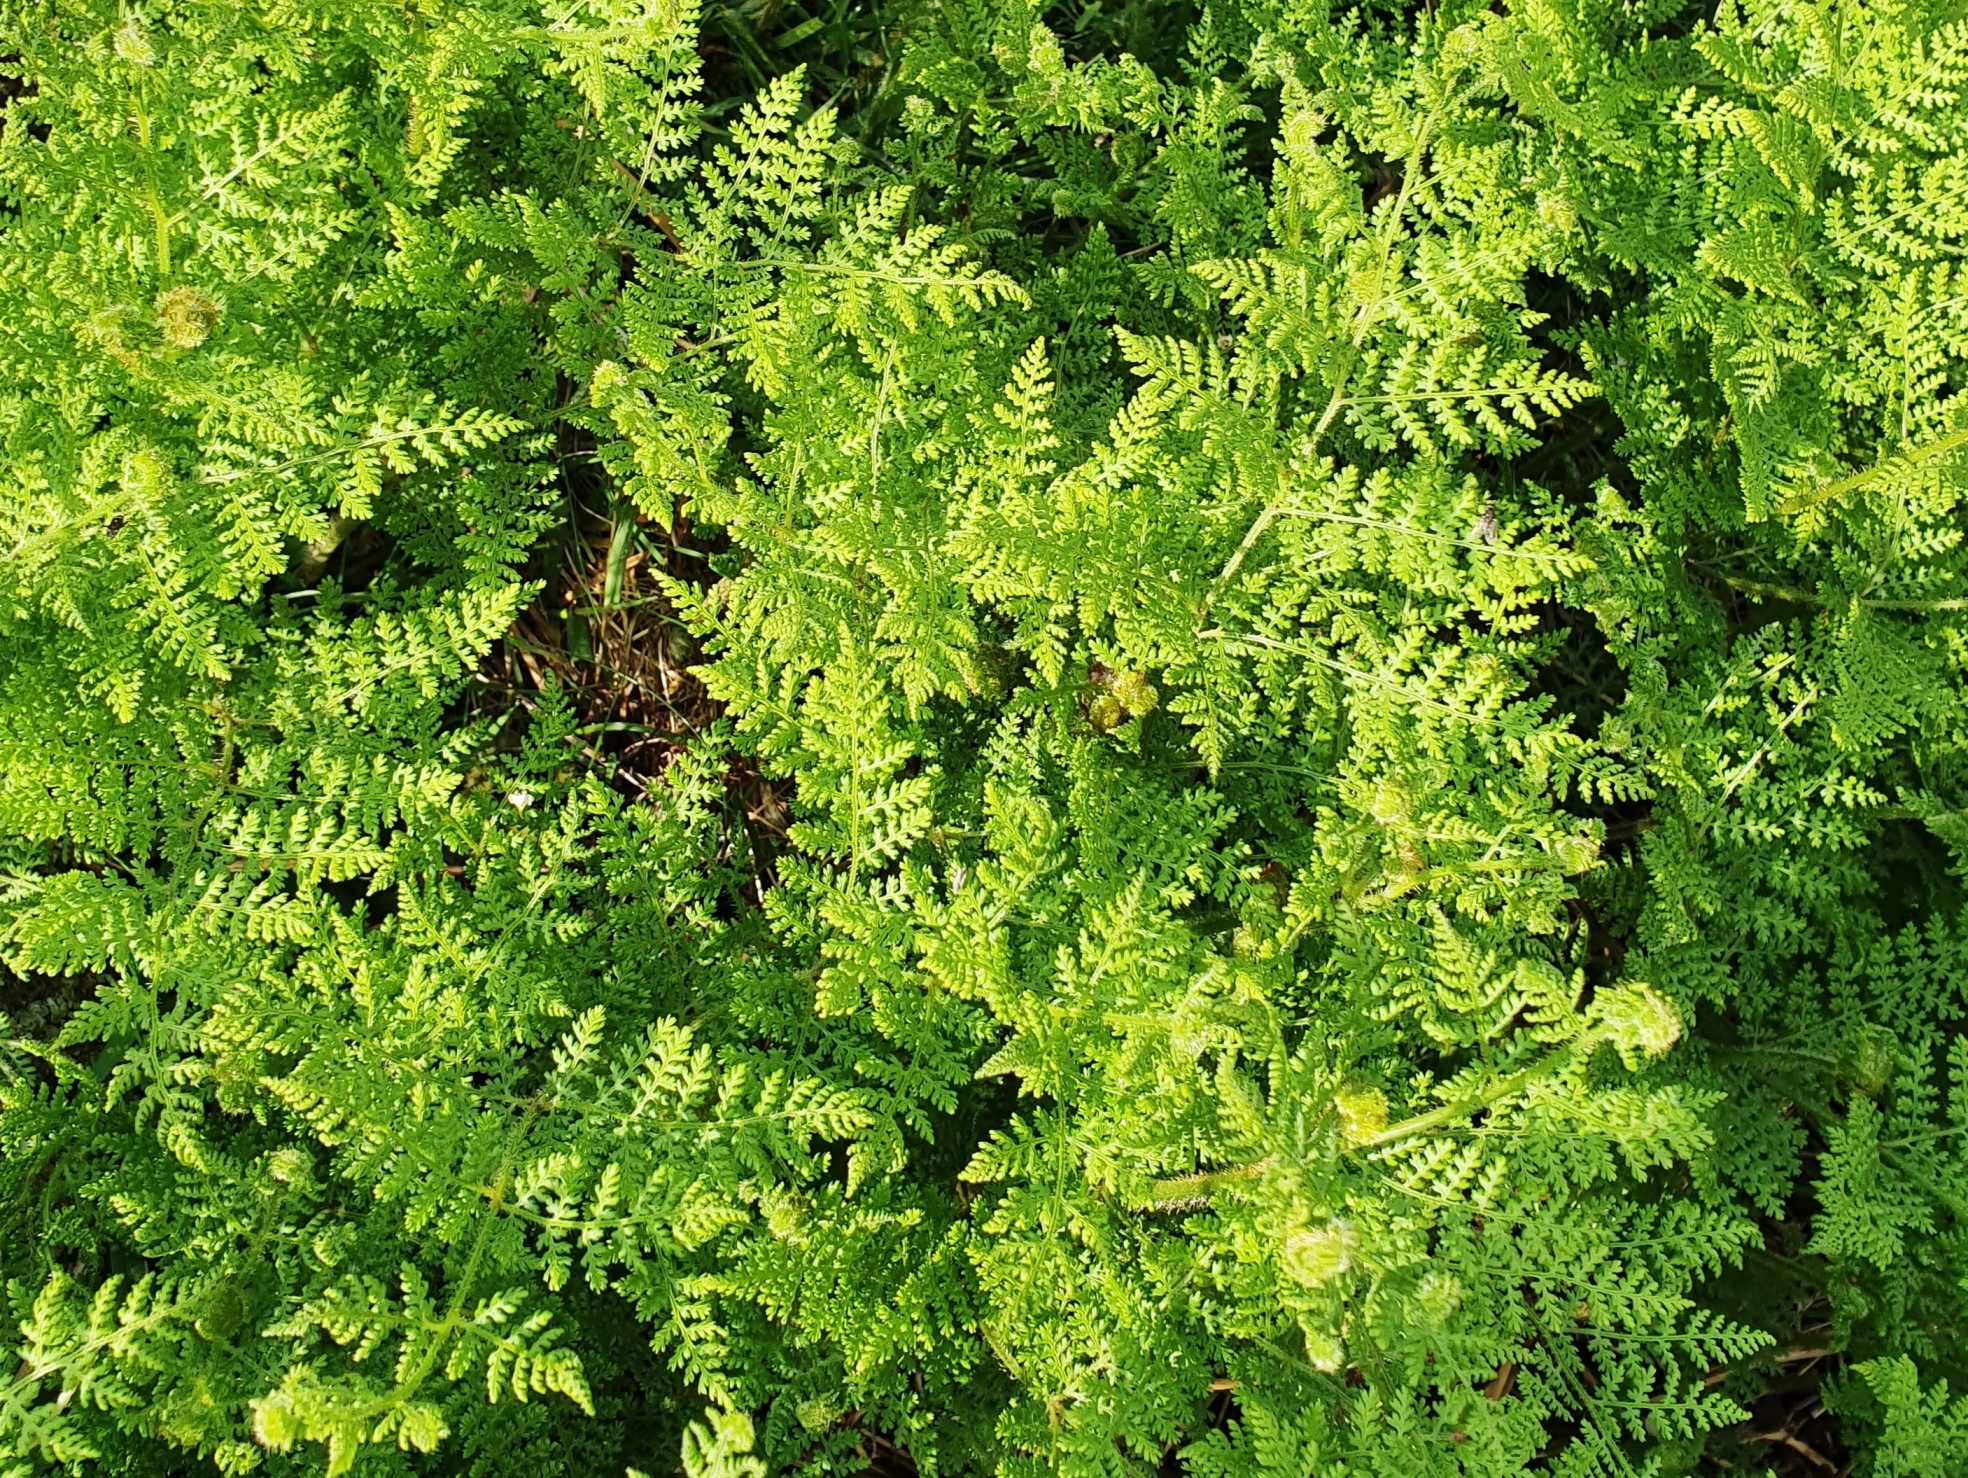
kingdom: Plantae
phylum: Tracheophyta
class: Polypodiopsida
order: Polypodiales
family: Dennstaedtiaceae
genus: Hypolepis
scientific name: Hypolepis millefolium
